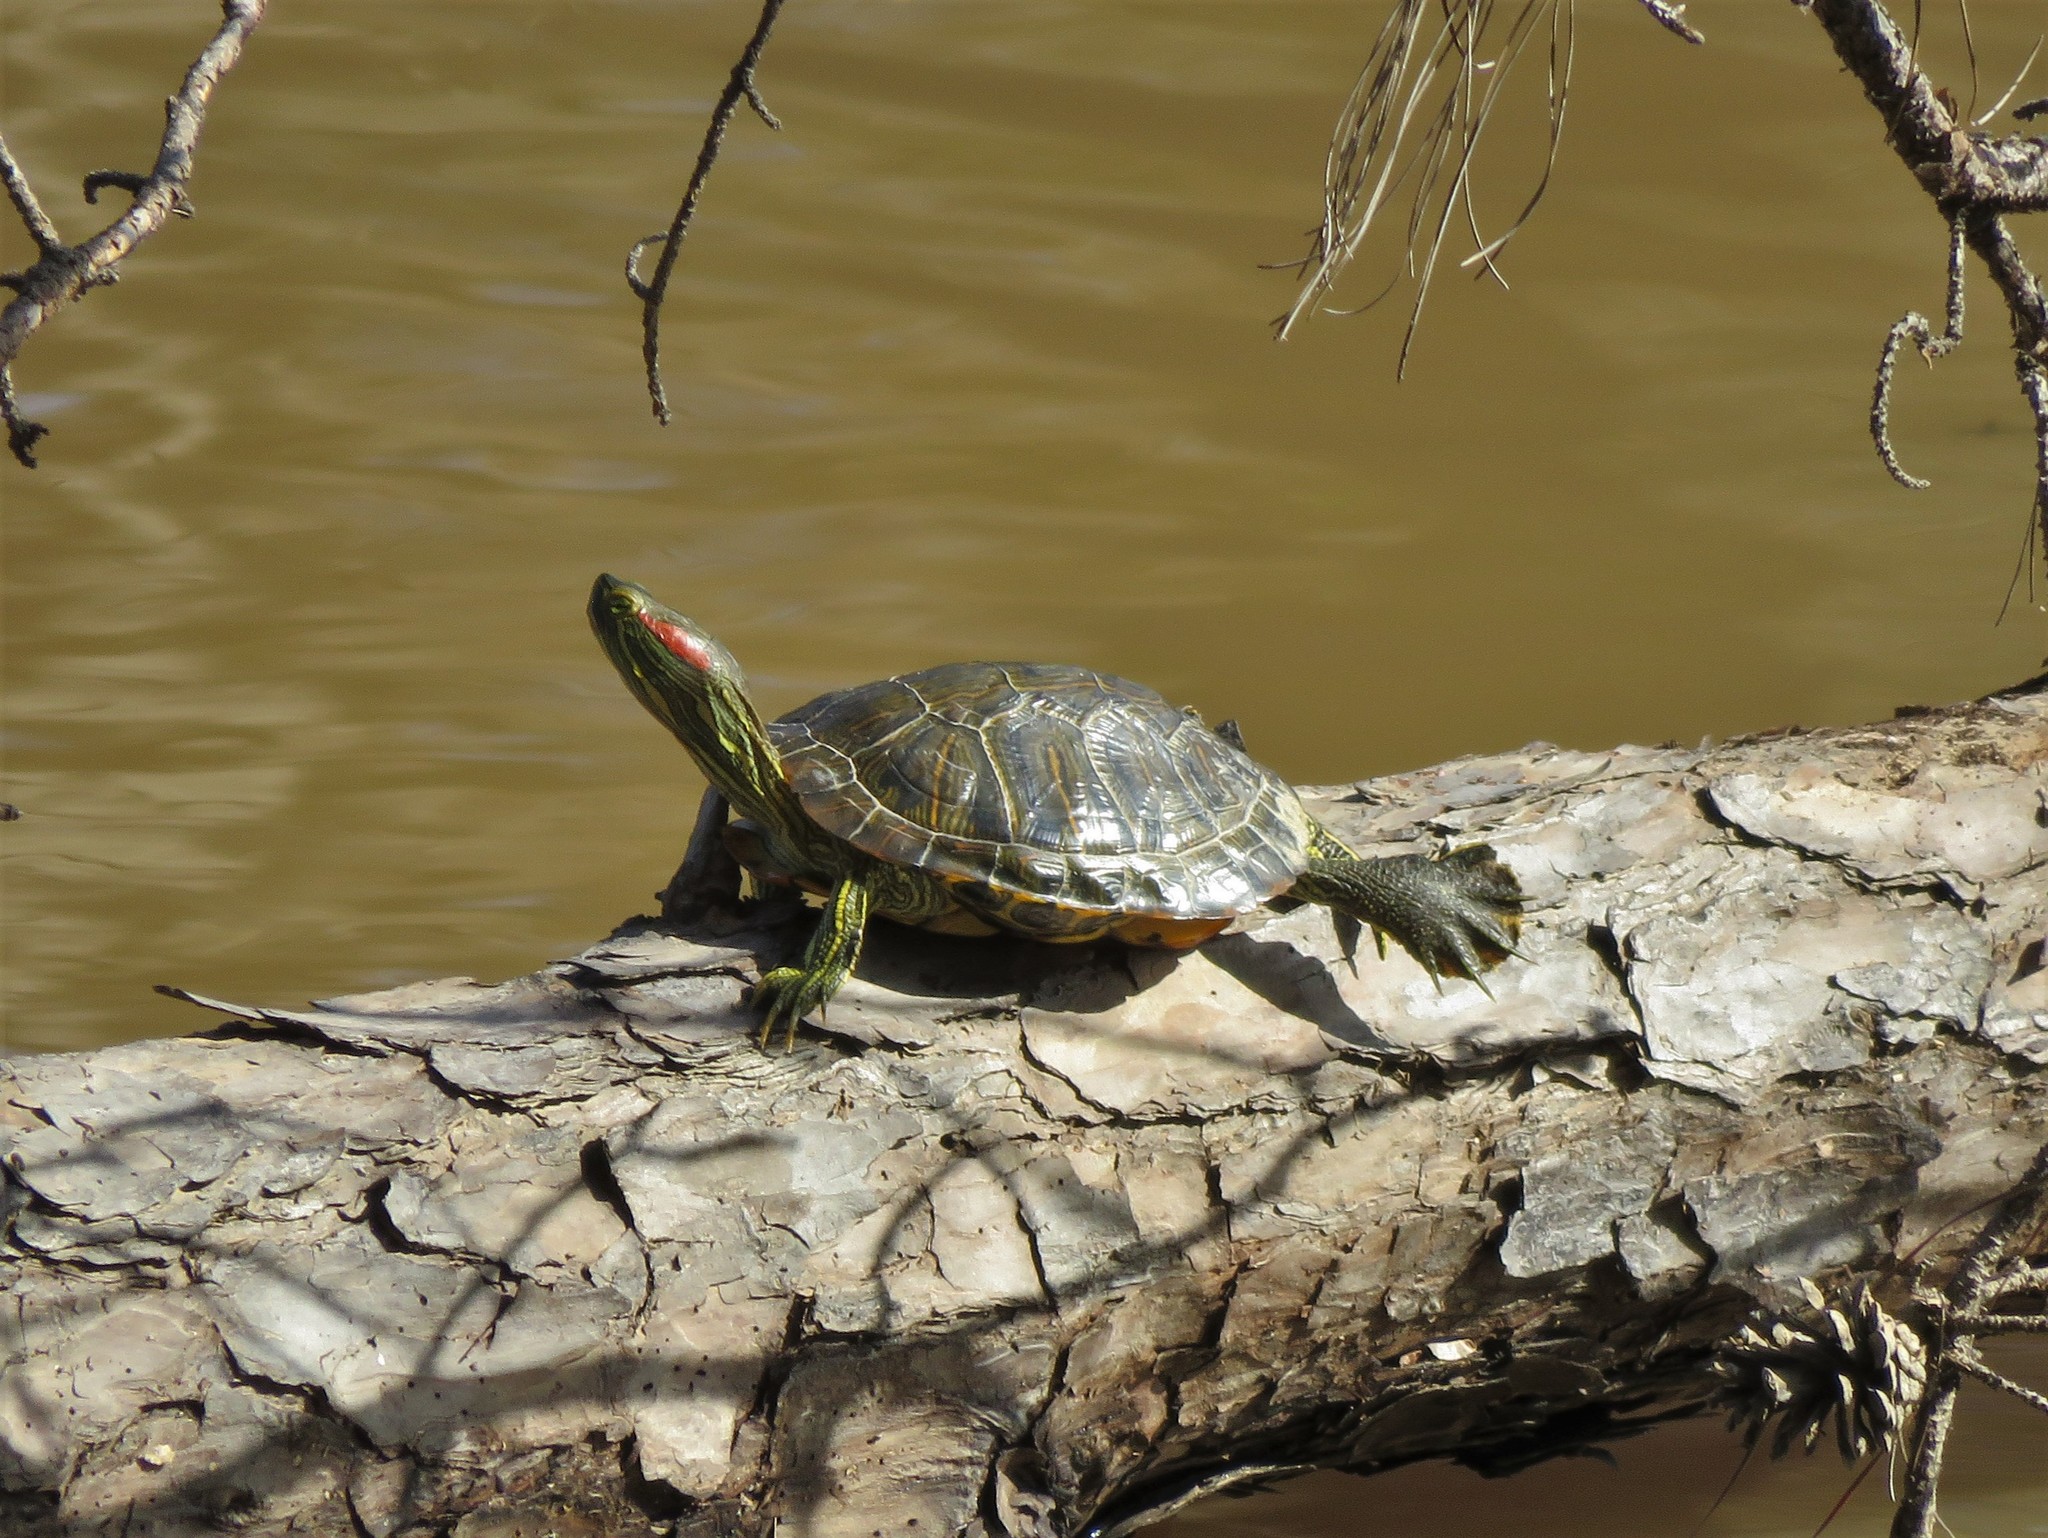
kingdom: Animalia
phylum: Chordata
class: Testudines
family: Emydidae
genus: Trachemys
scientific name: Trachemys scripta
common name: Slider
